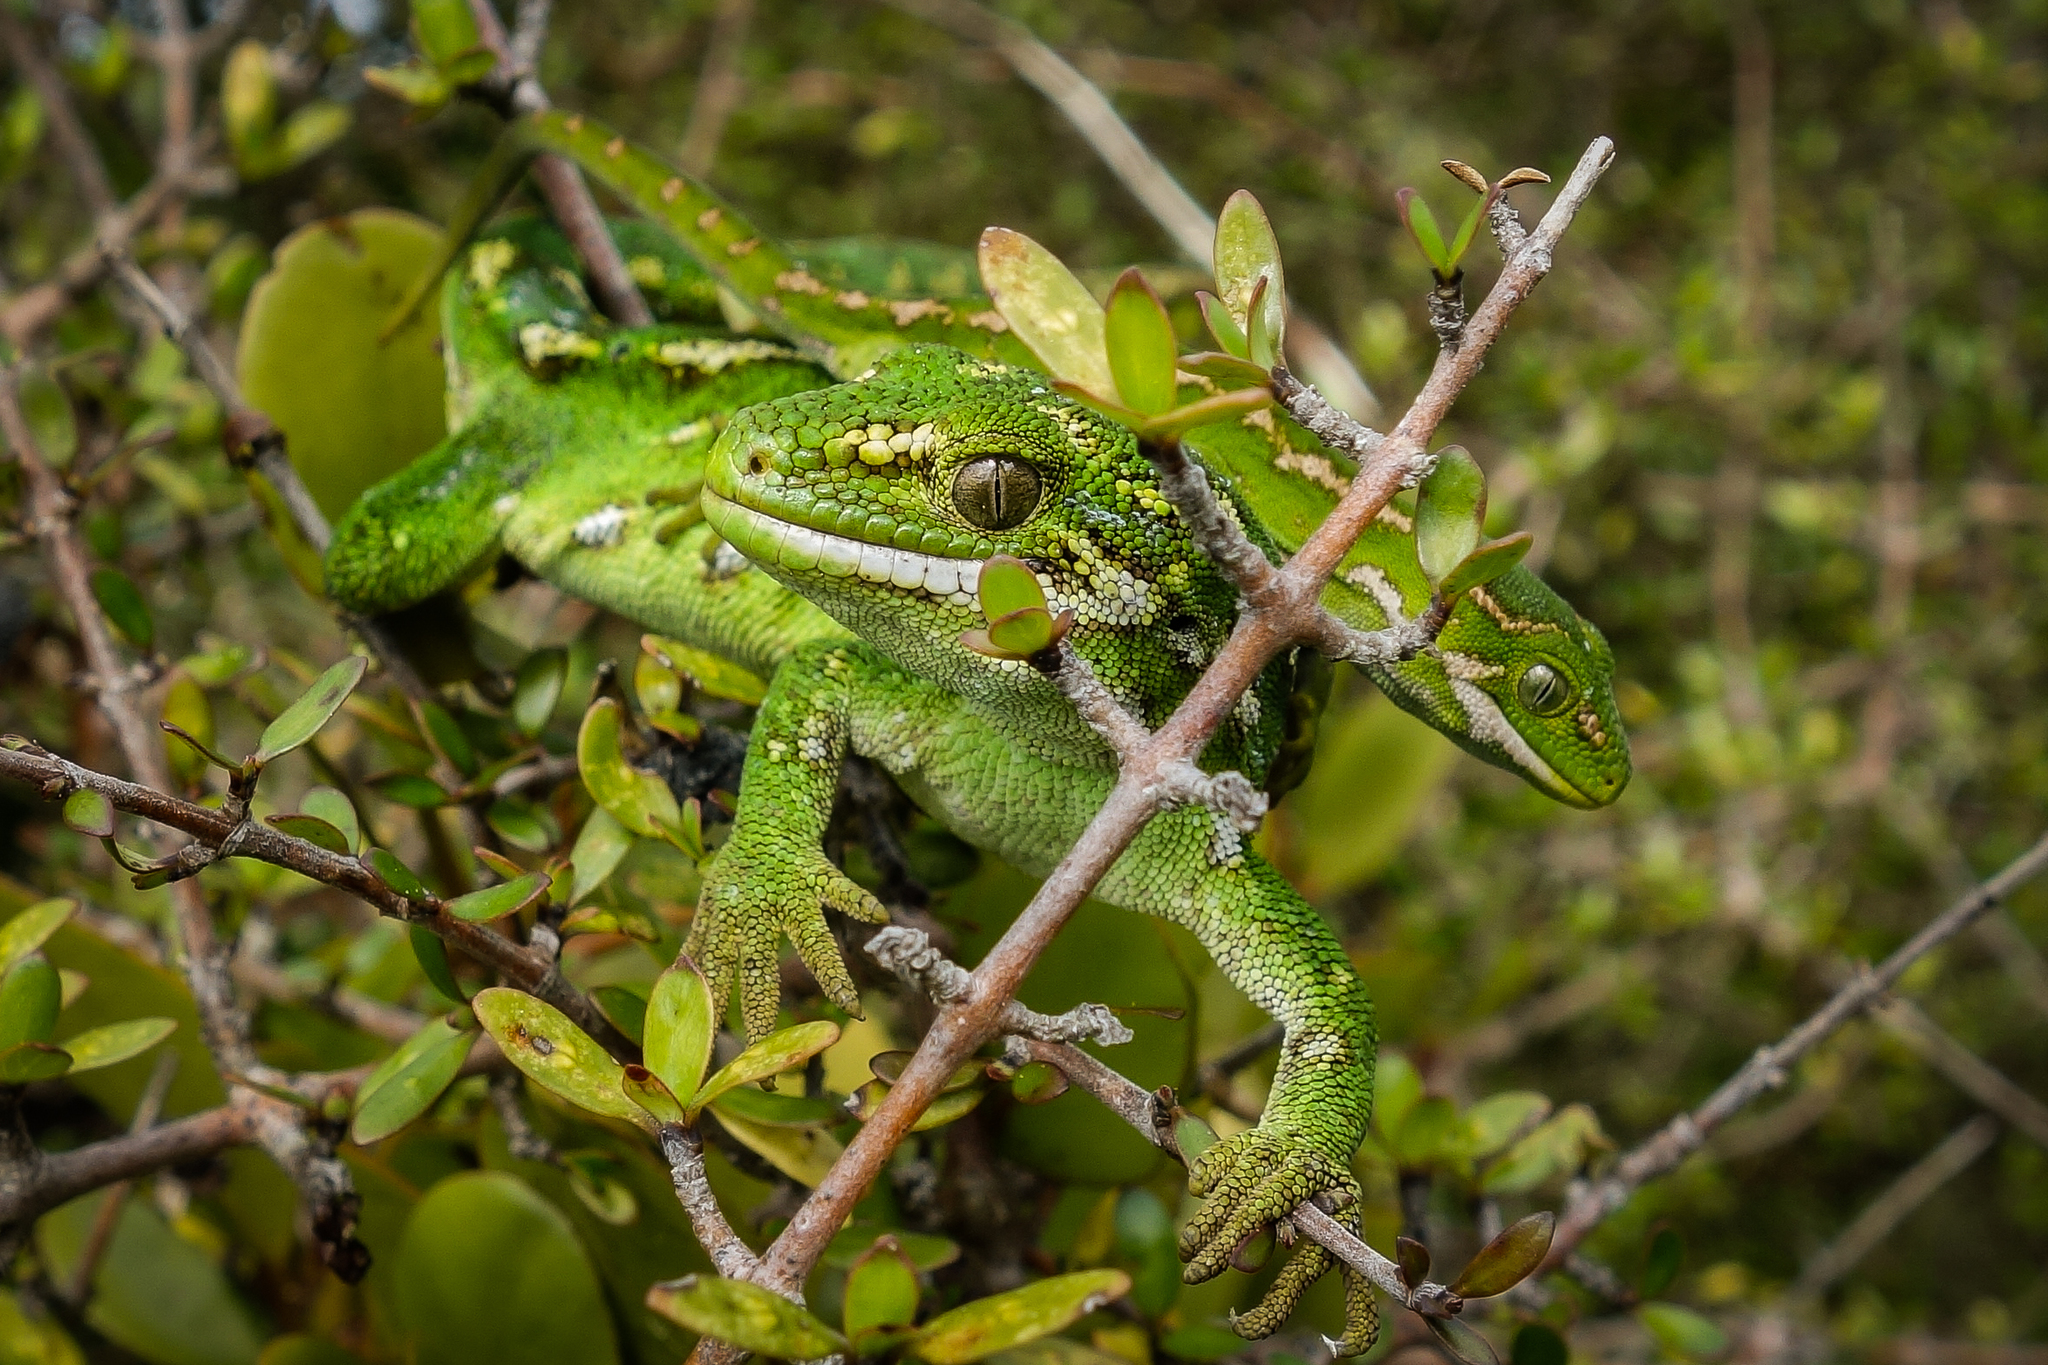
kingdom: Animalia
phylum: Chordata
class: Squamata
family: Diplodactylidae
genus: Naultinus
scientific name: Naultinus gemmeus
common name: Jewelled gecko
